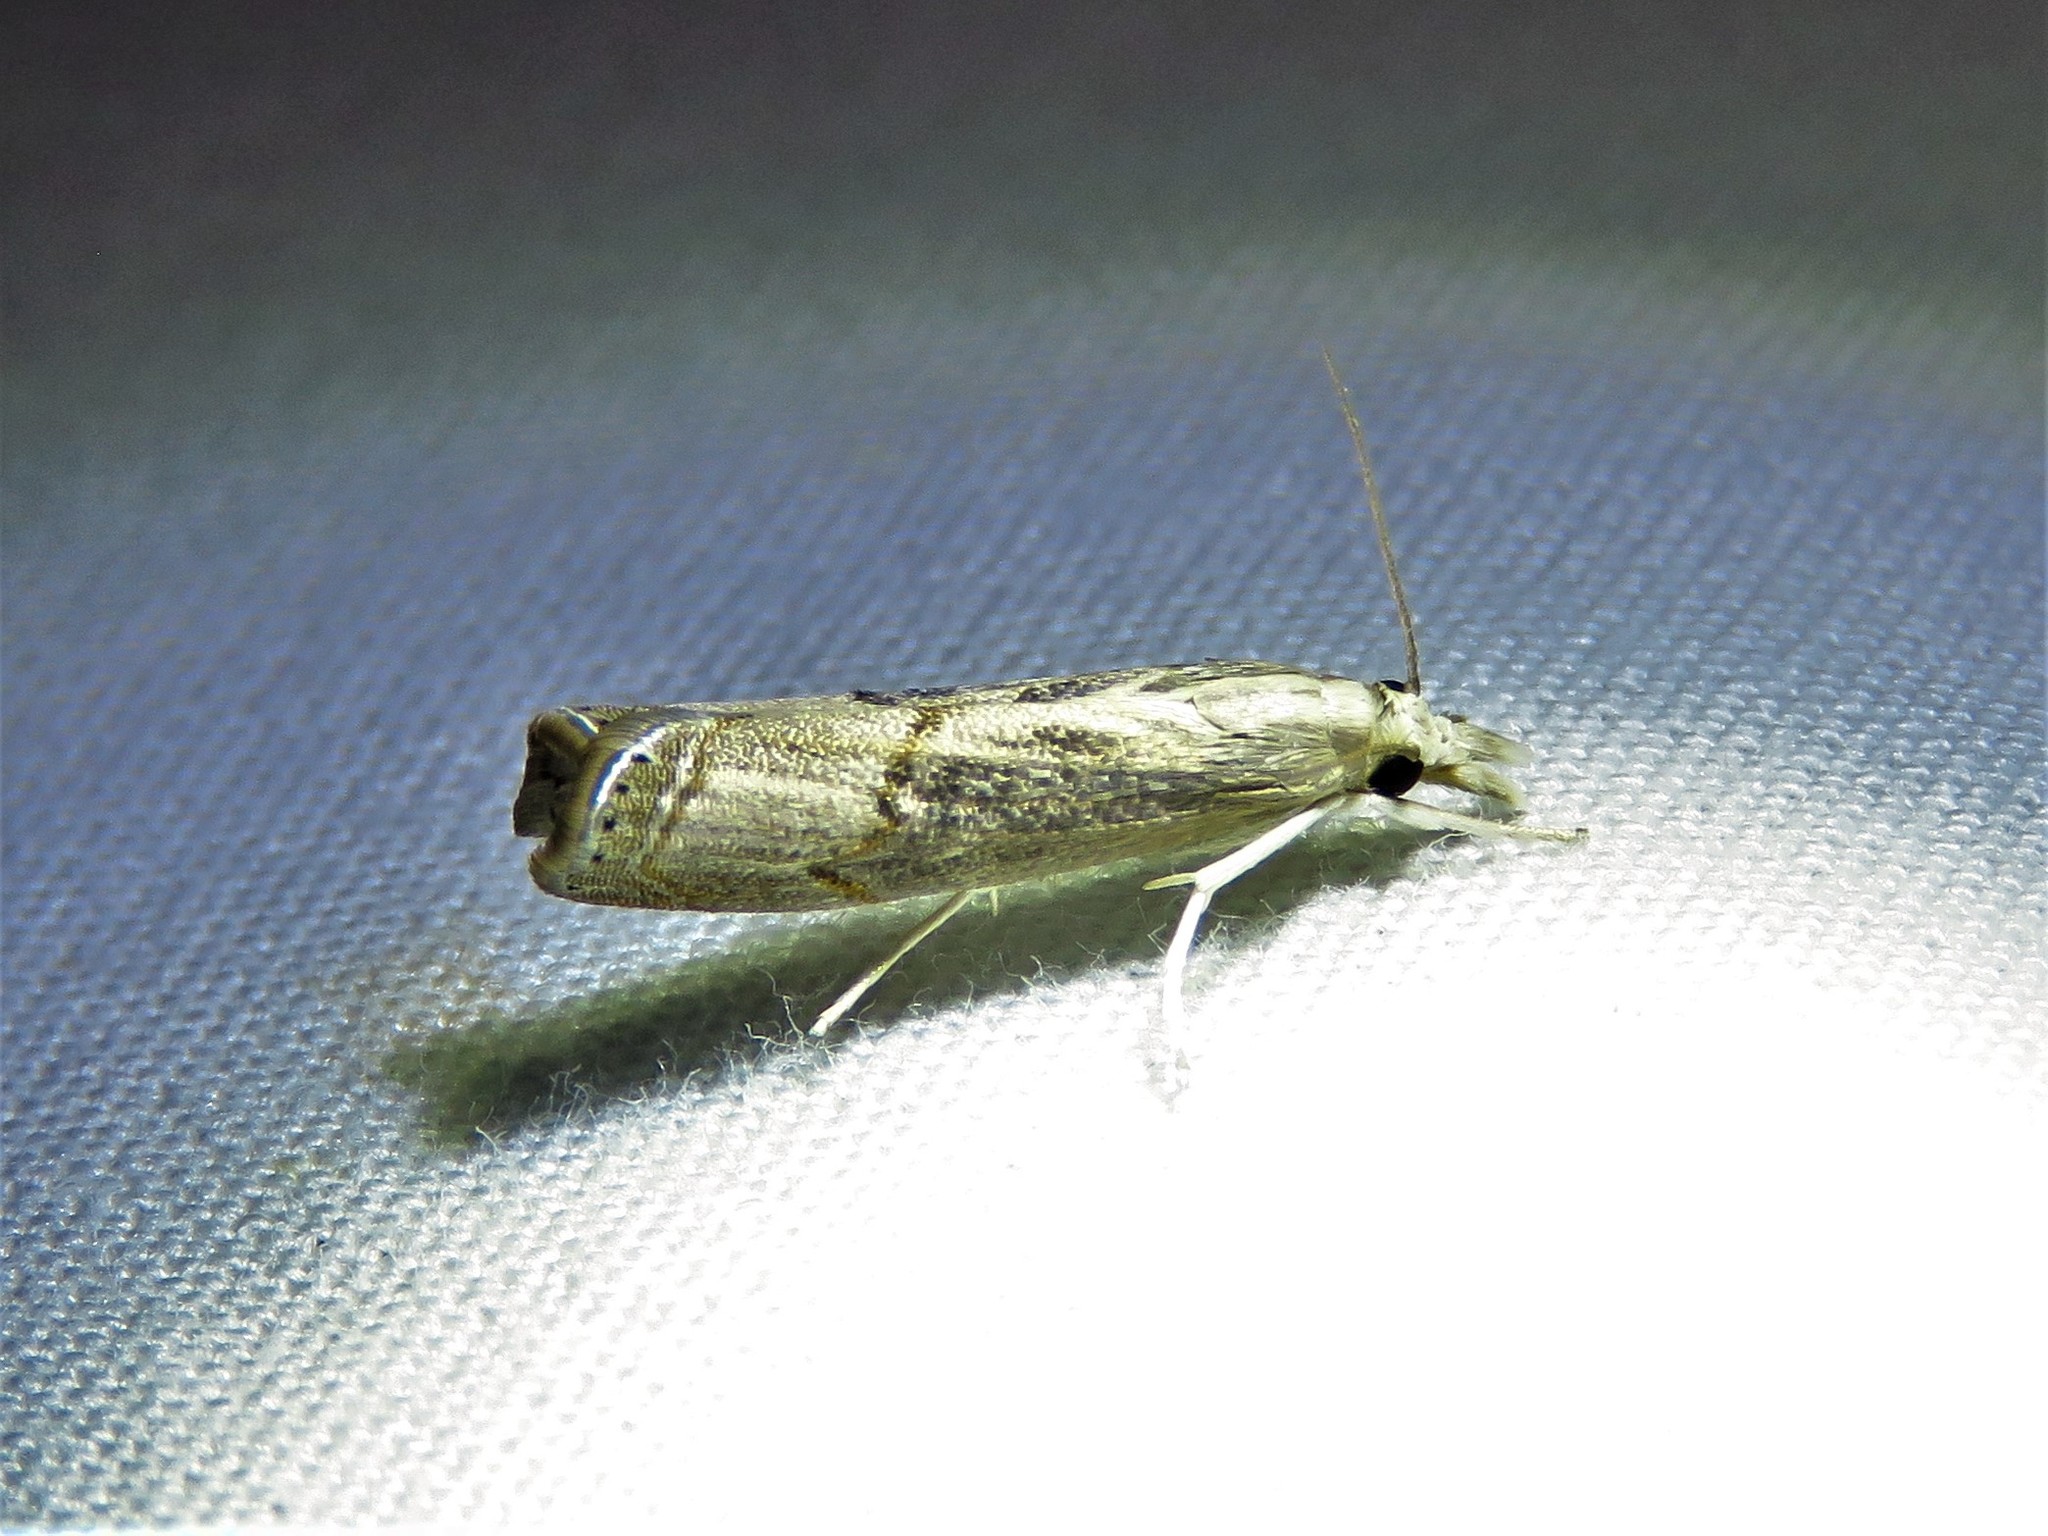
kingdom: Animalia
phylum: Arthropoda
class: Insecta
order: Lepidoptera
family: Crambidae
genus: Parapediasia
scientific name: Parapediasia teterellus
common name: Bluegrass webworm moth
